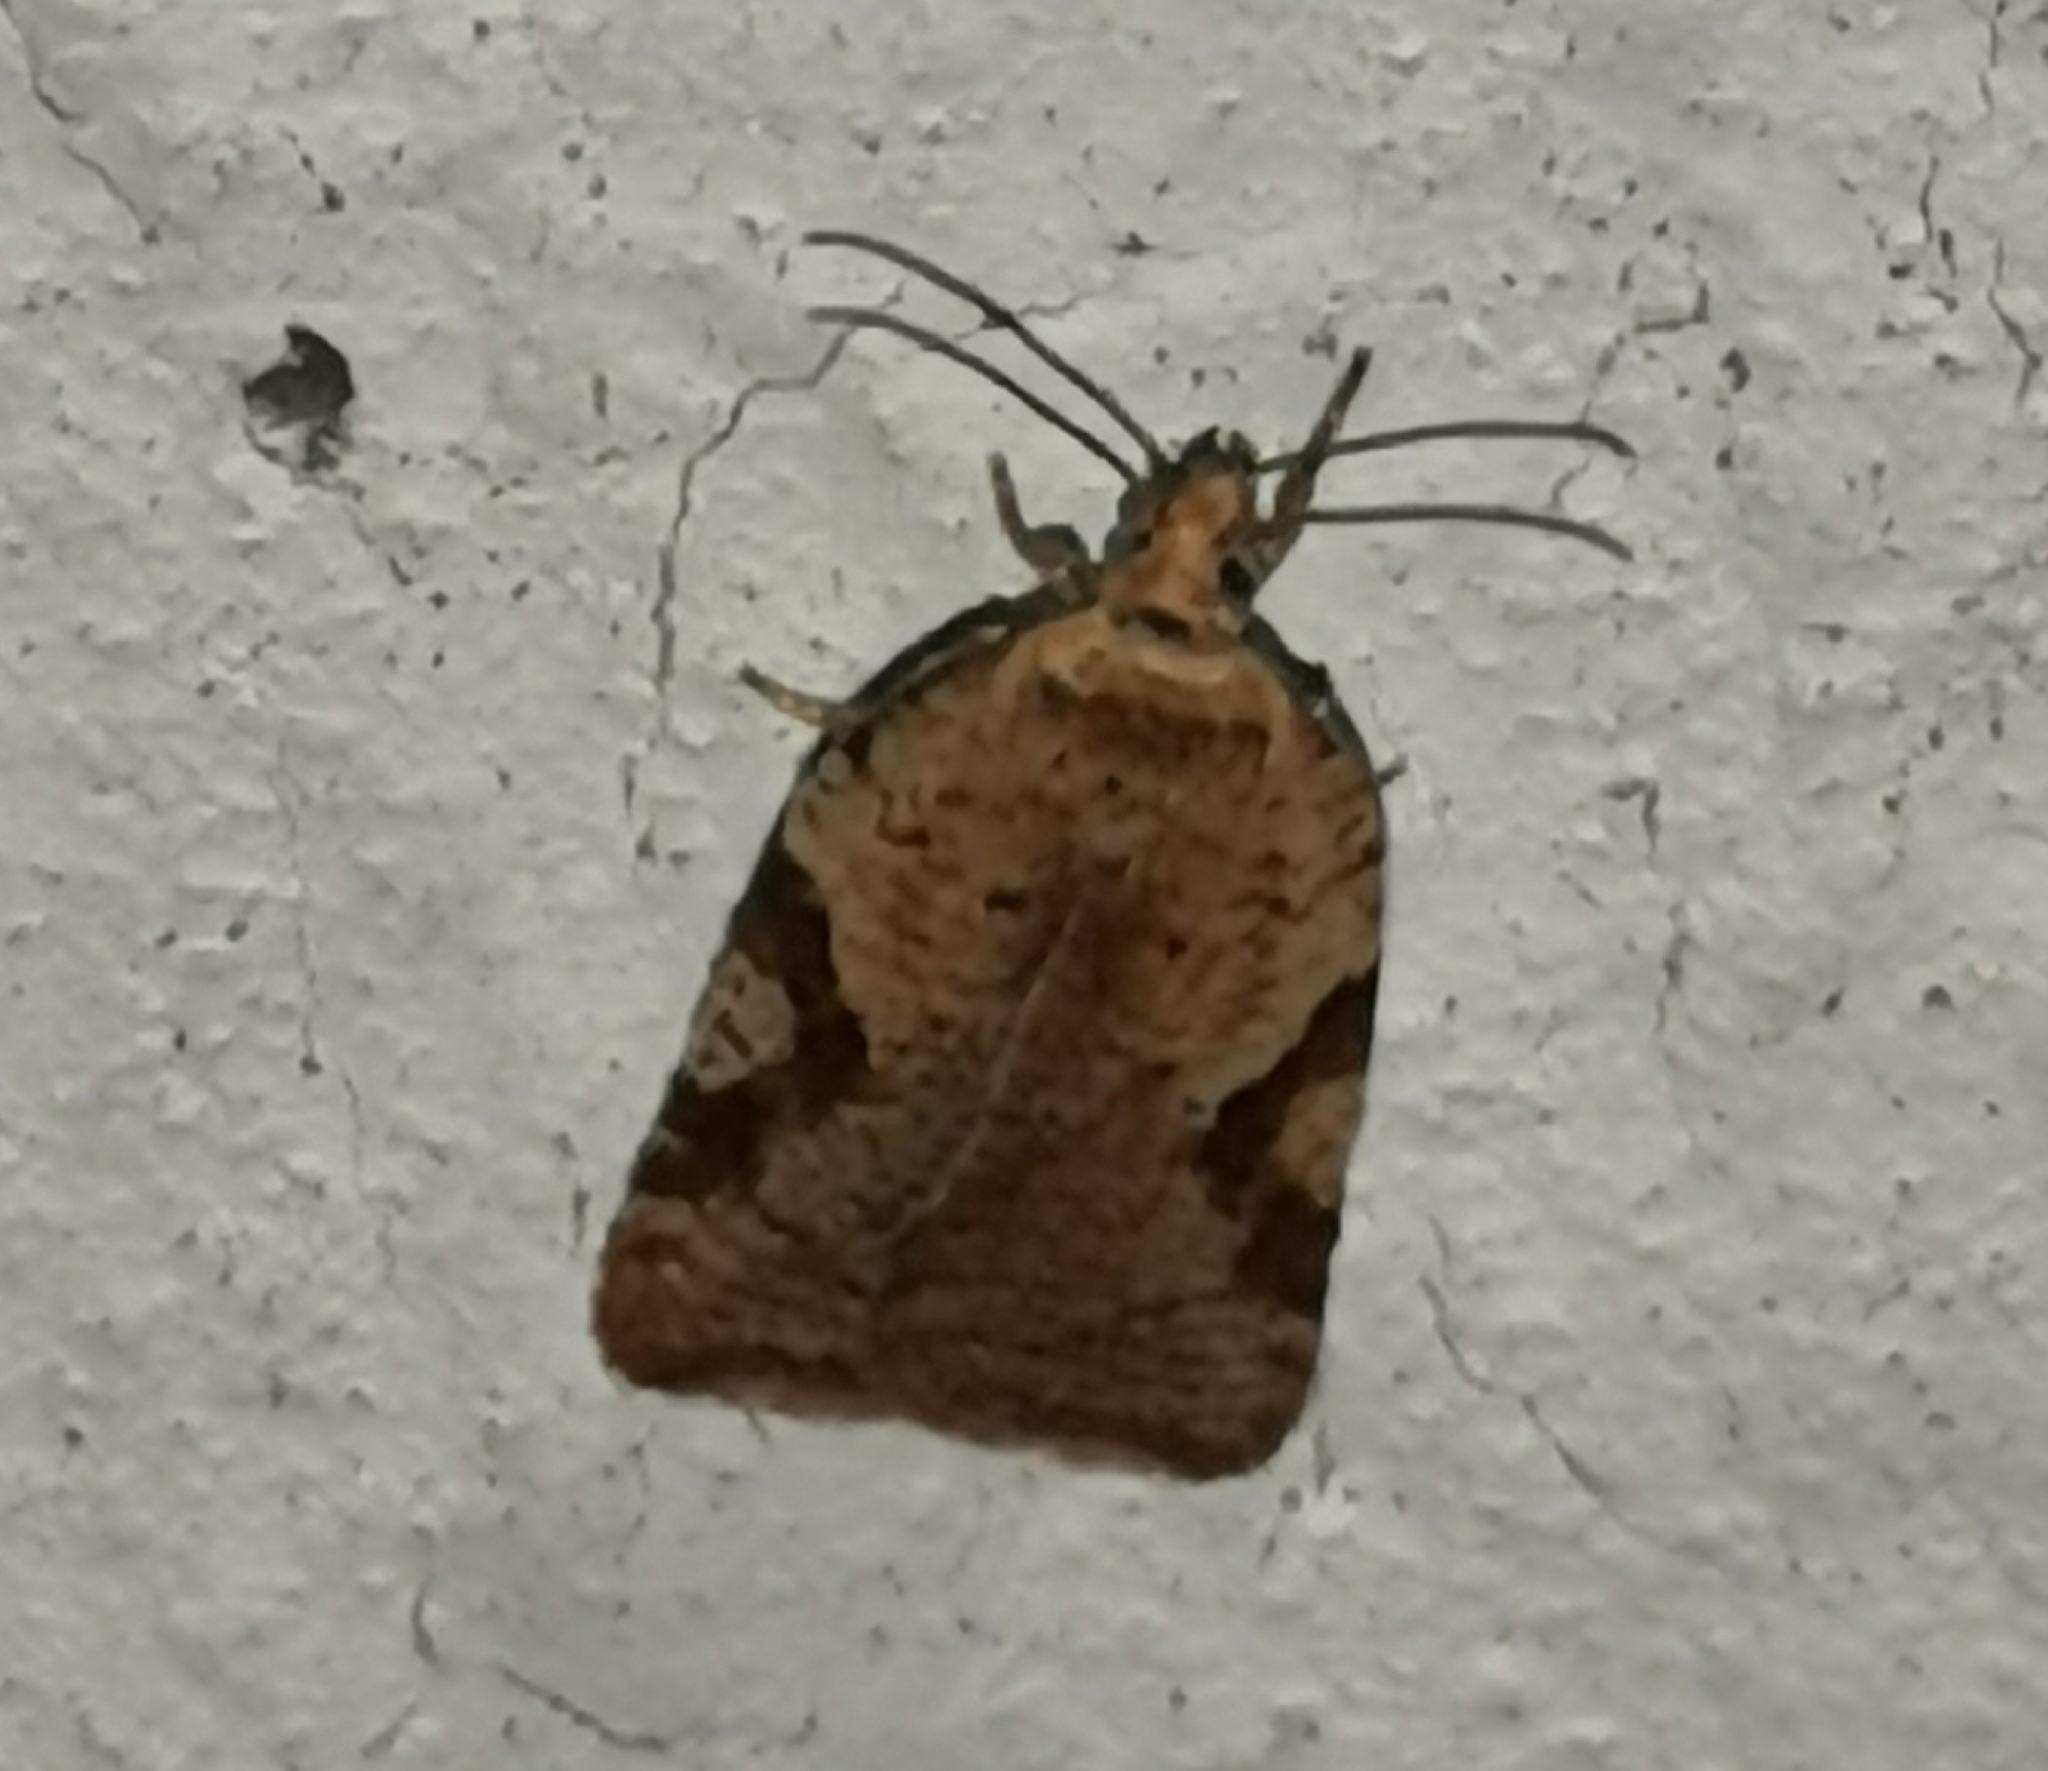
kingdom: Animalia
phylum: Arthropoda
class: Insecta
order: Lepidoptera
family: Tortricidae
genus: Acleris
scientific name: Acleris notana
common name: Rusty birch button
